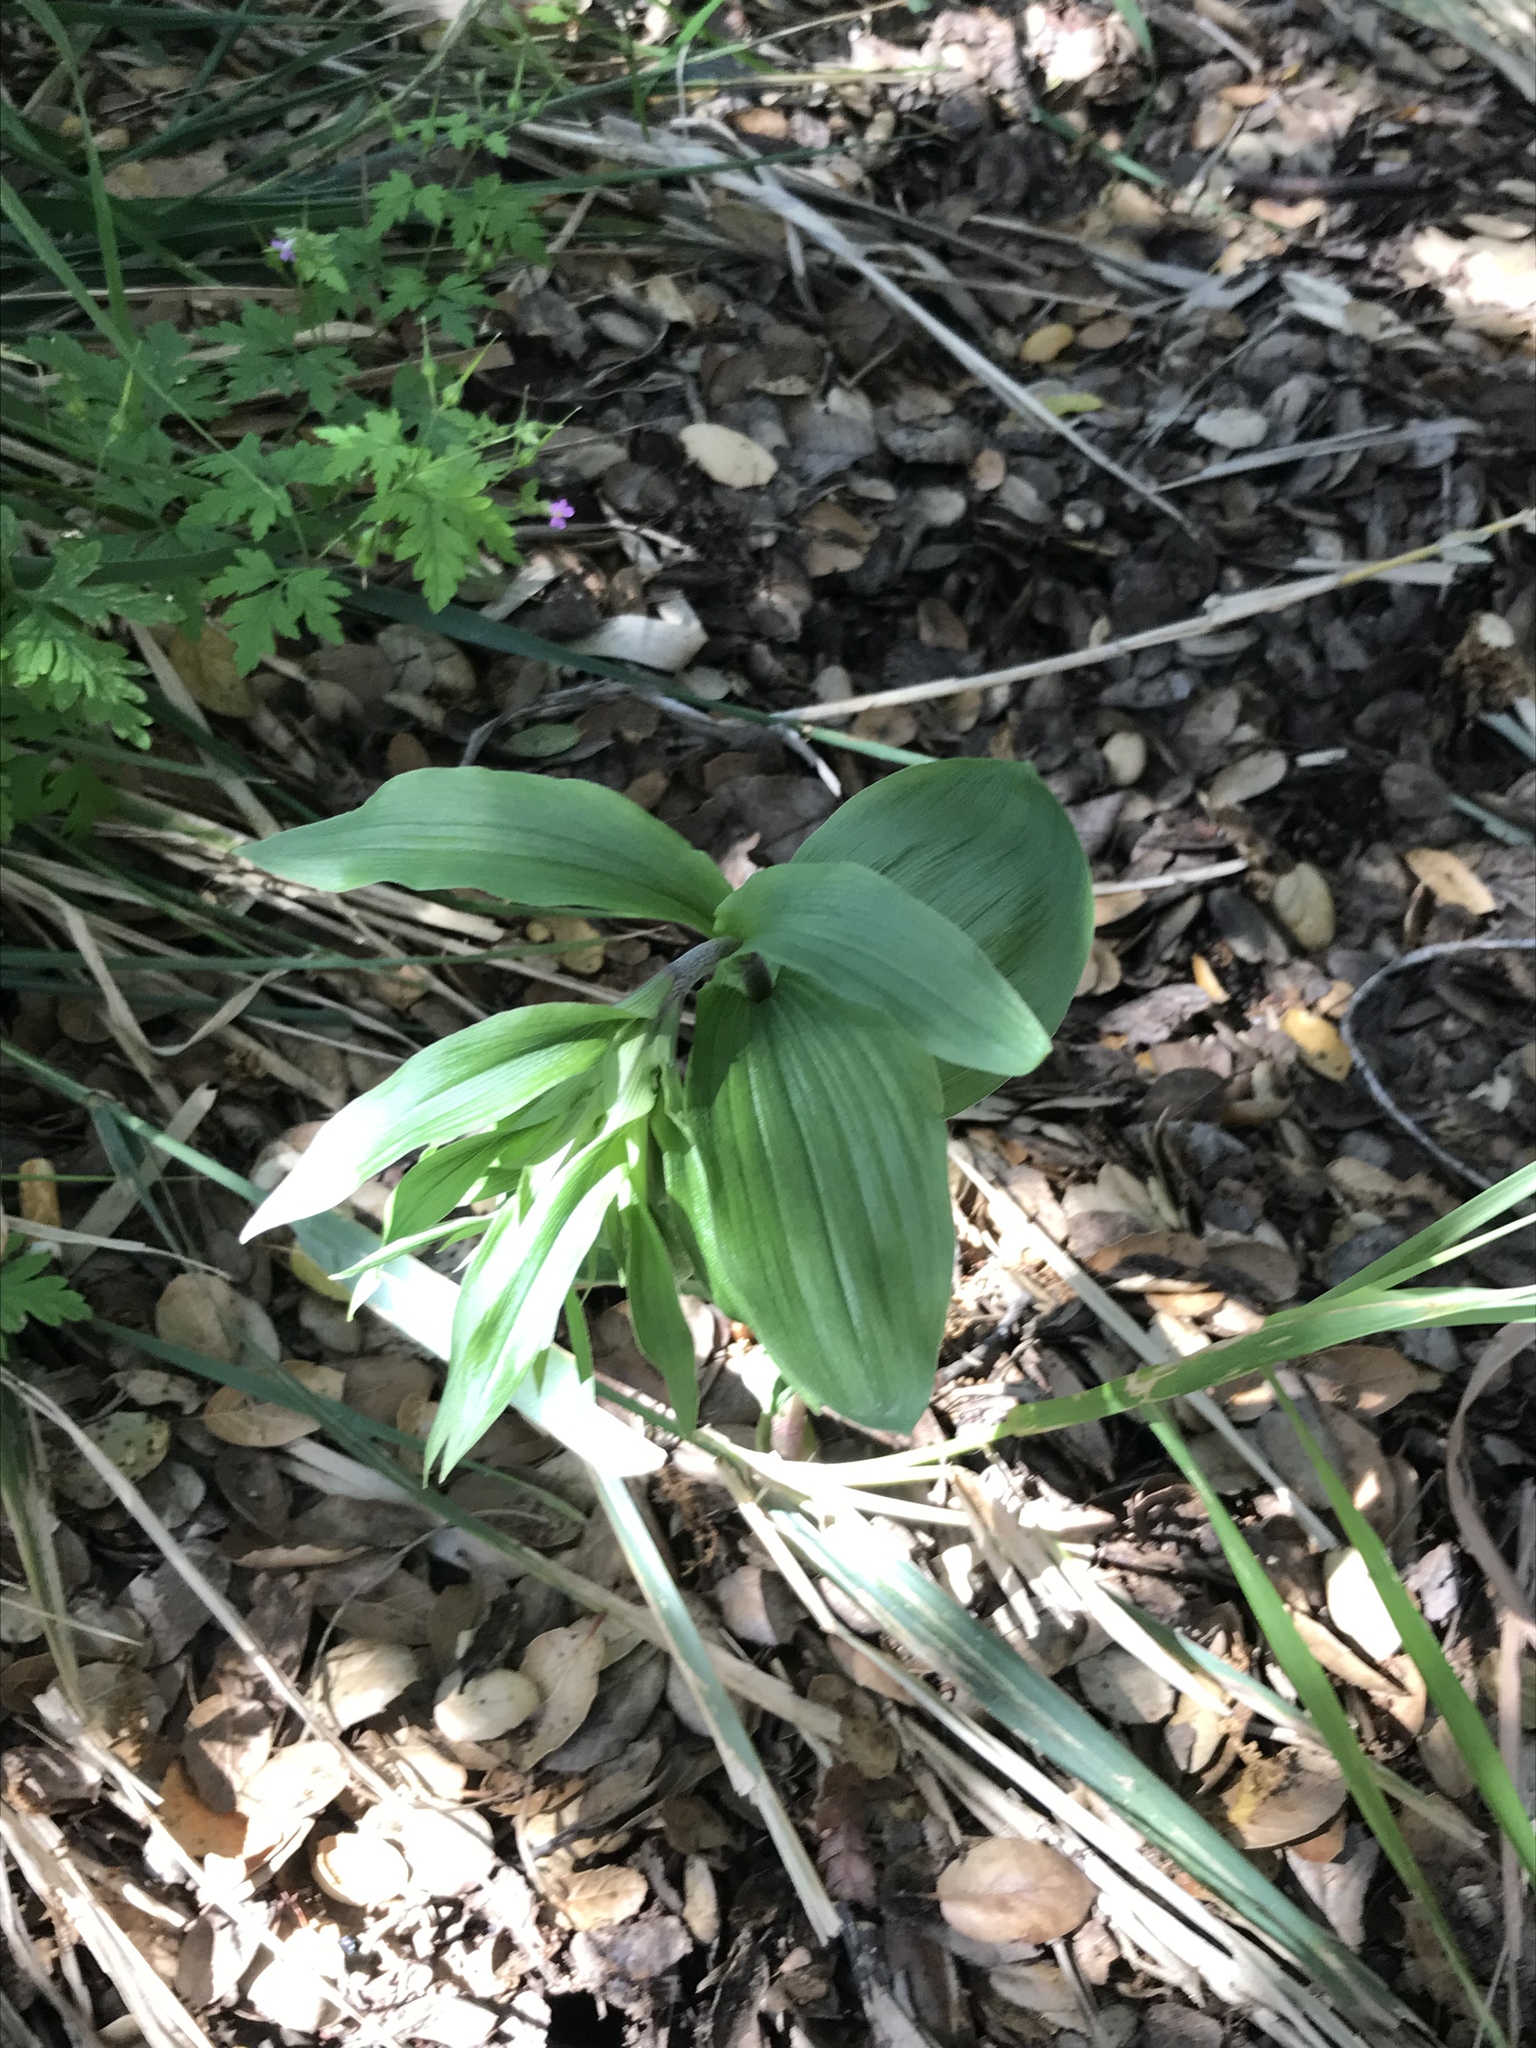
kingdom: Plantae
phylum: Tracheophyta
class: Liliopsida
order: Asparagales
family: Orchidaceae
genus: Epipactis
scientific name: Epipactis helleborine
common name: Broad-leaved helleborine
